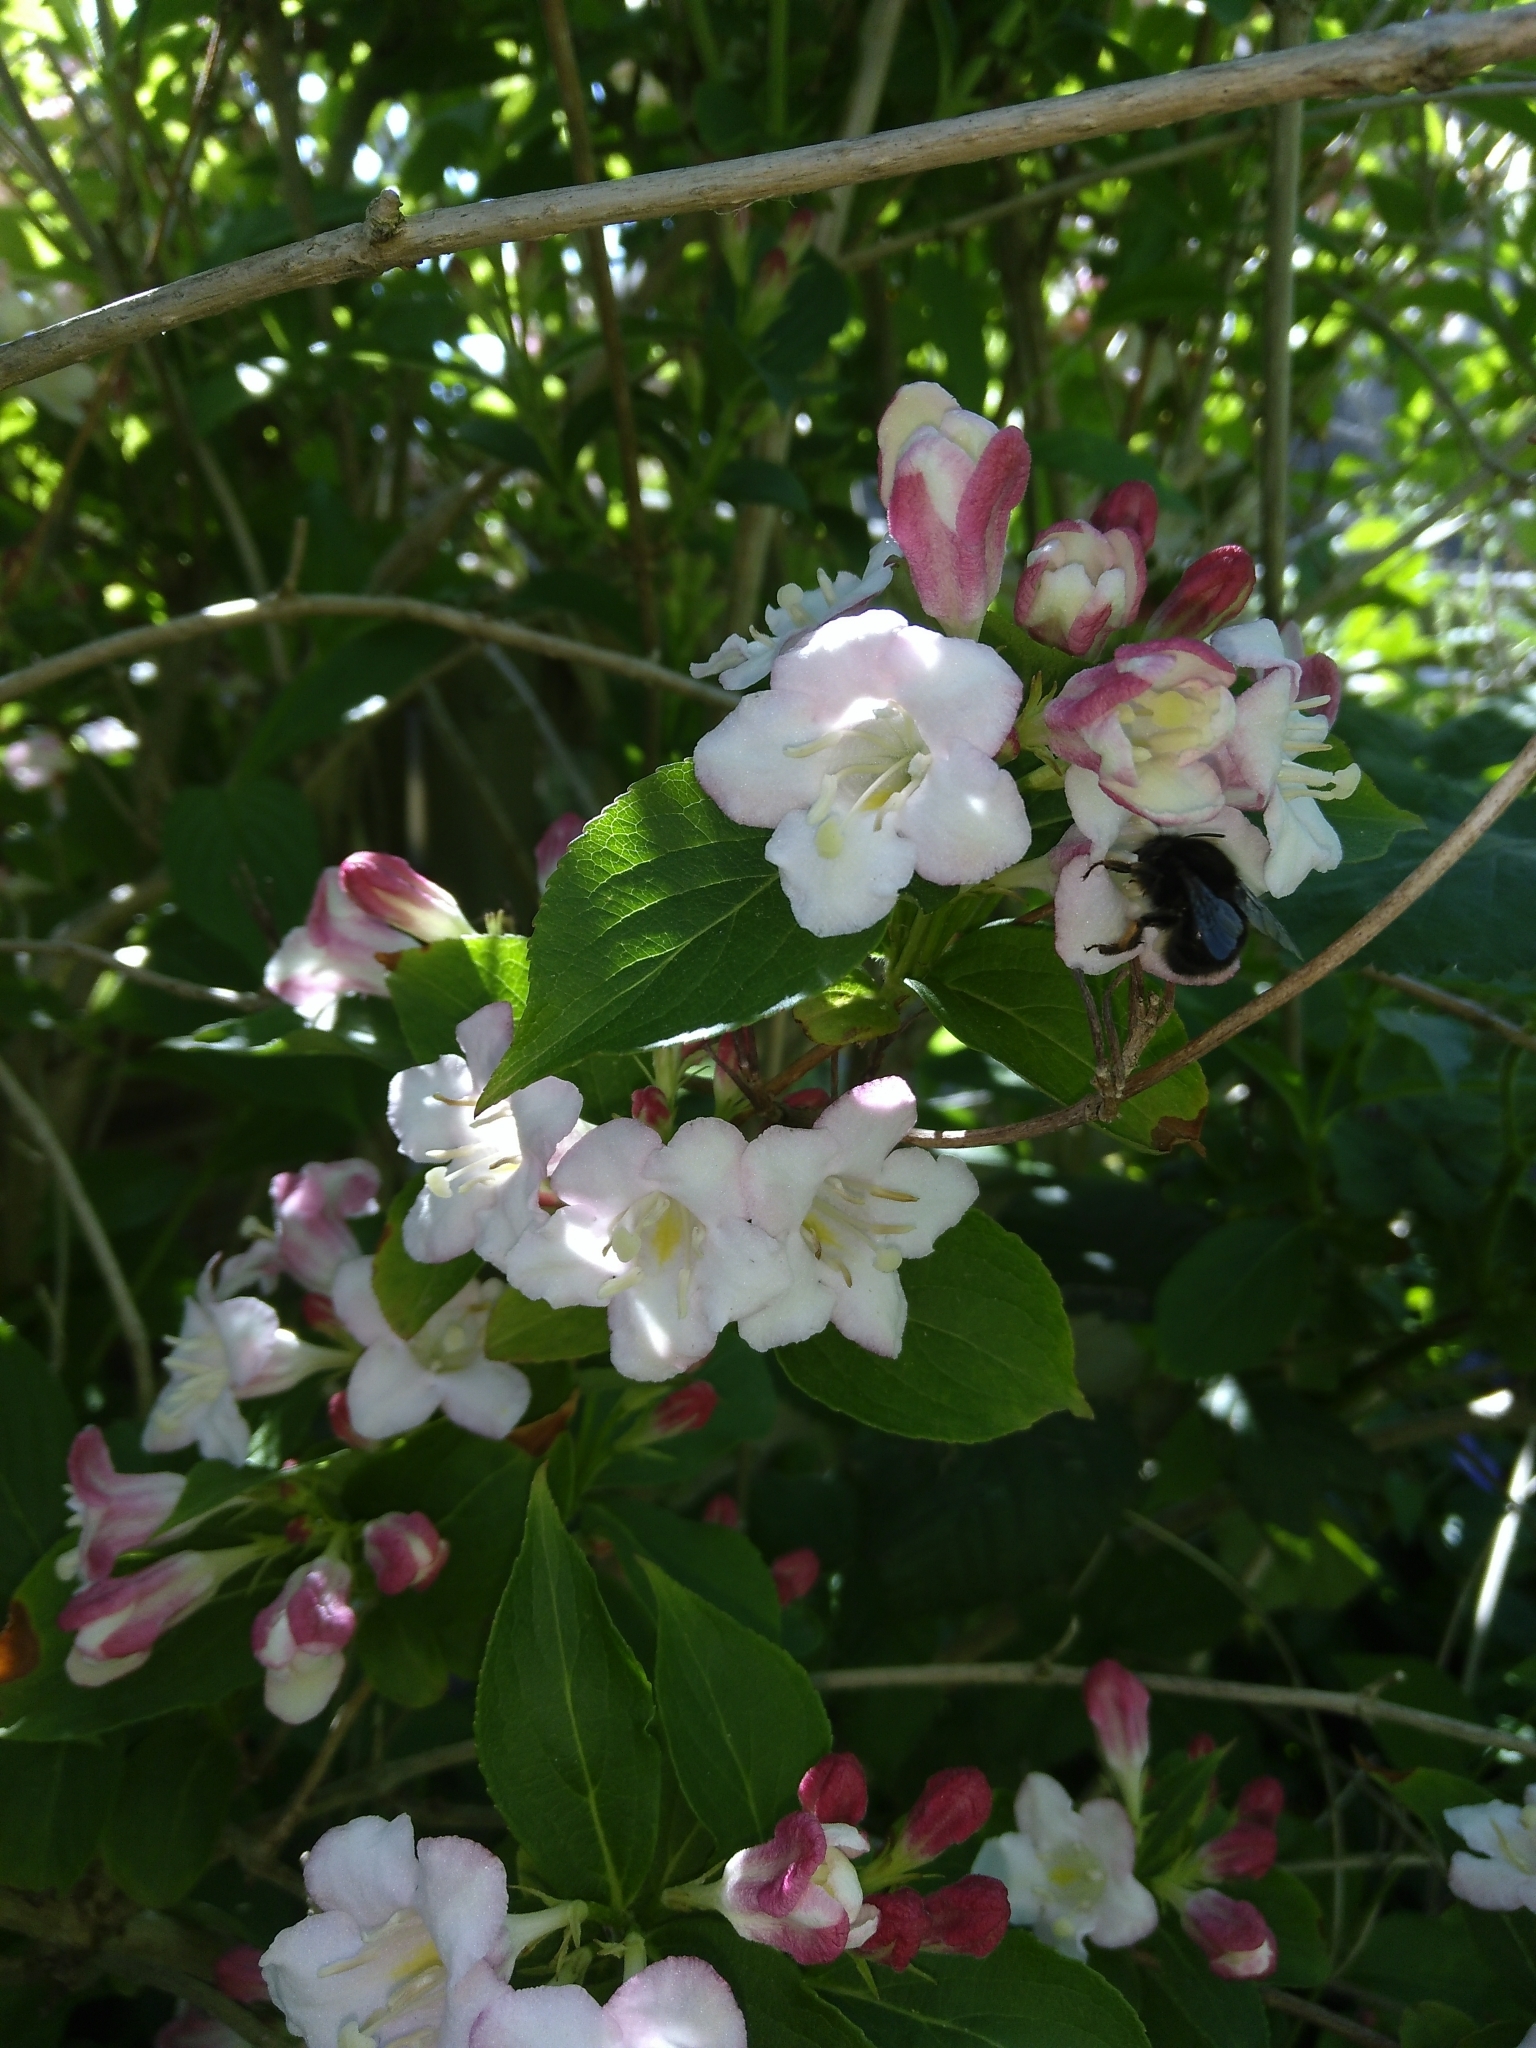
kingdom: Animalia
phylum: Arthropoda
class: Insecta
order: Hymenoptera
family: Apidae
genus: Anthophora
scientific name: Anthophora plumipes
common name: Hairy-footed flower bee
